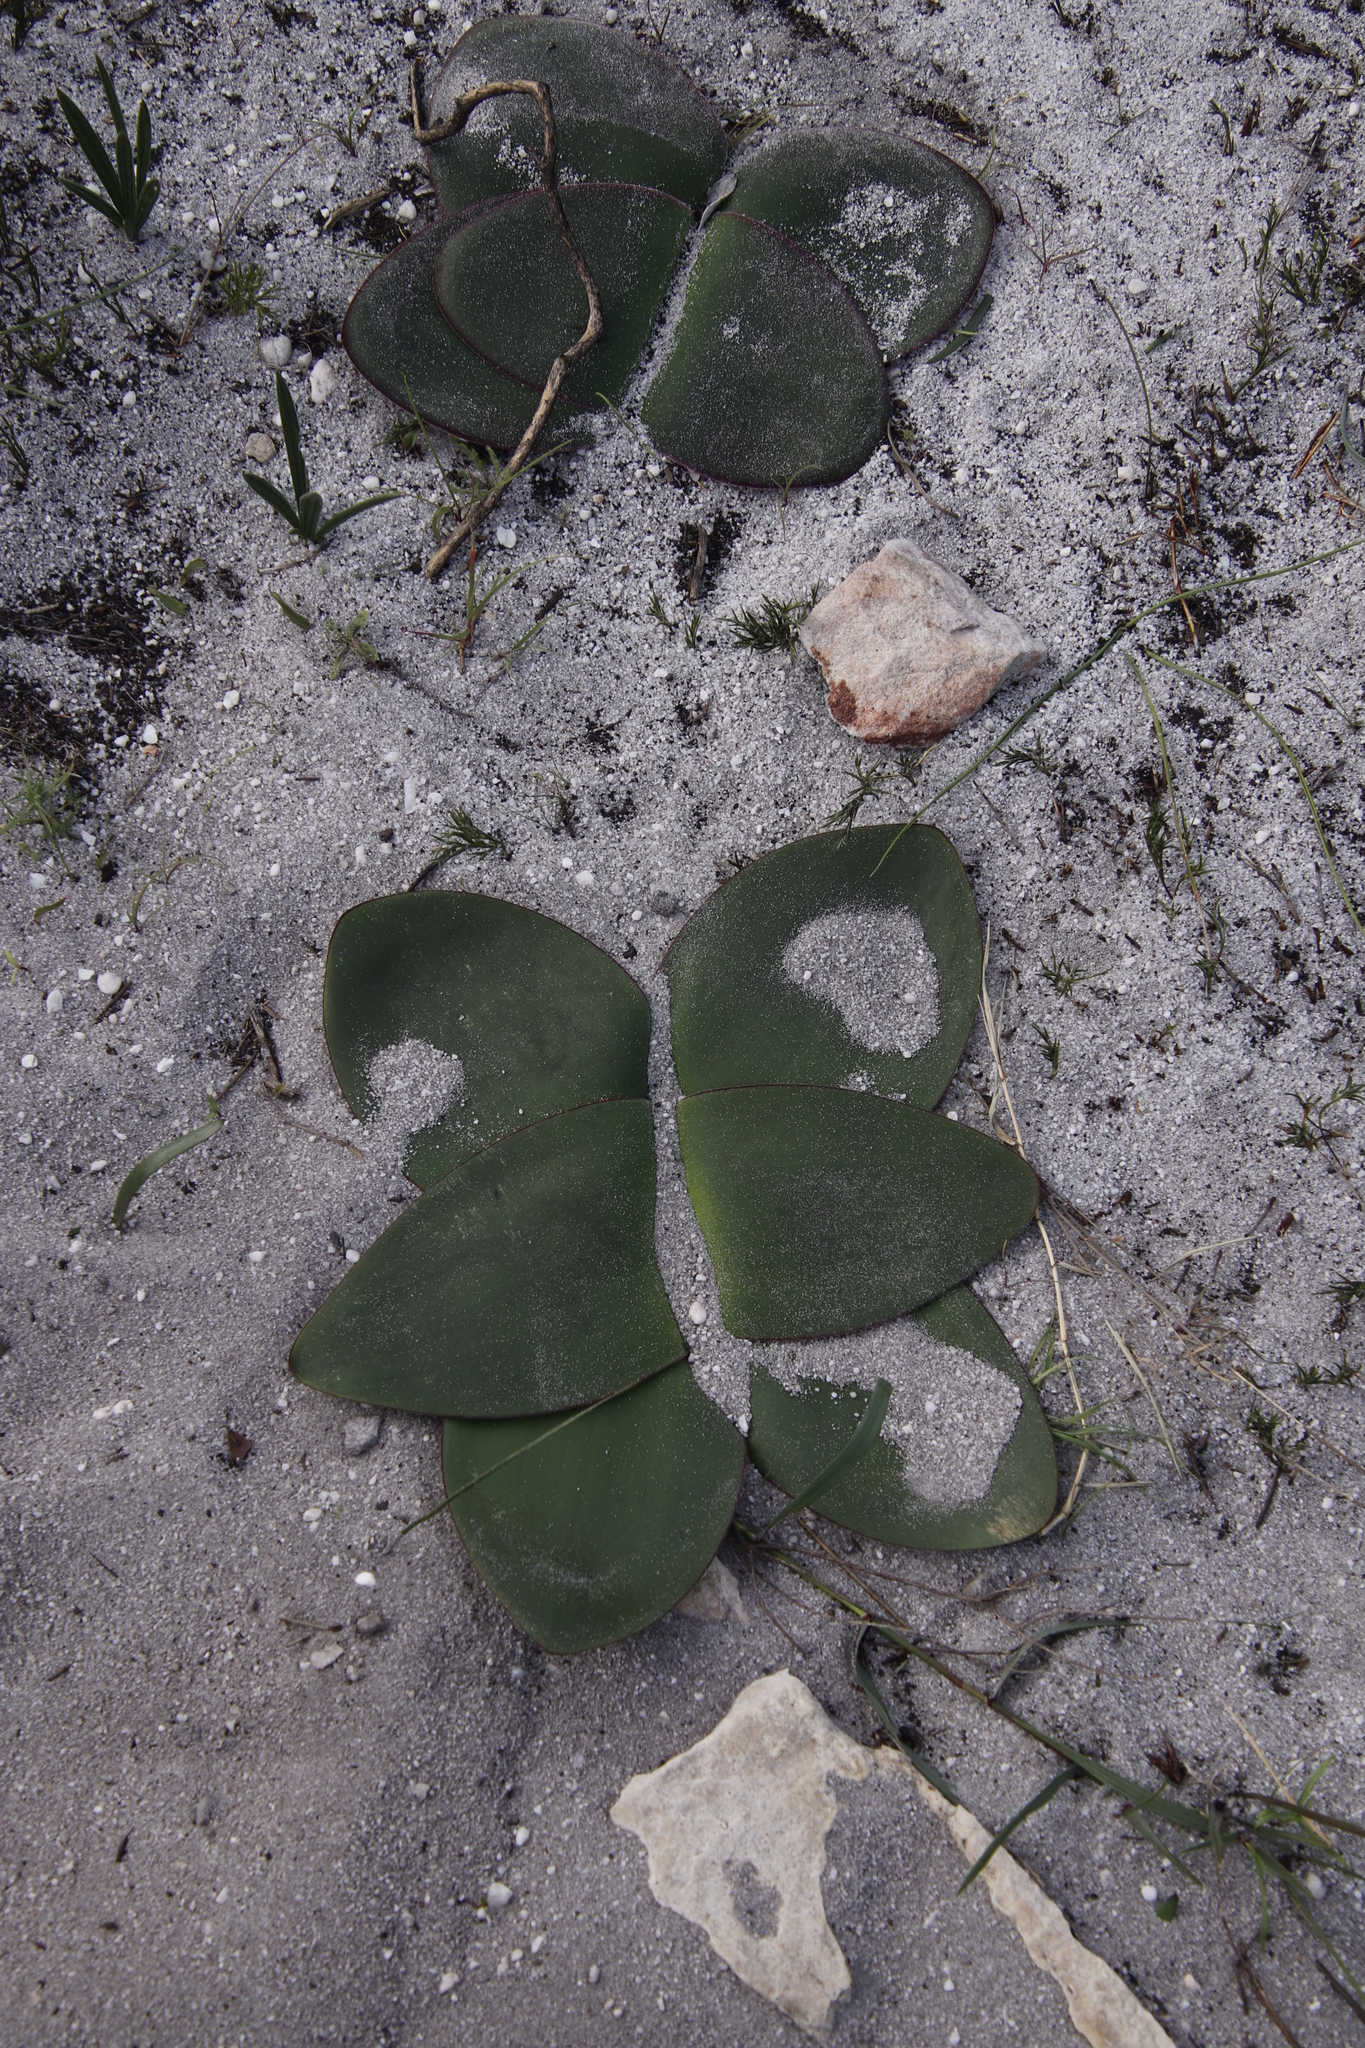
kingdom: Plantae
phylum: Tracheophyta
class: Liliopsida
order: Asparagales
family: Amaryllidaceae
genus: Brunsvigia
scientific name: Brunsvigia orientalis
